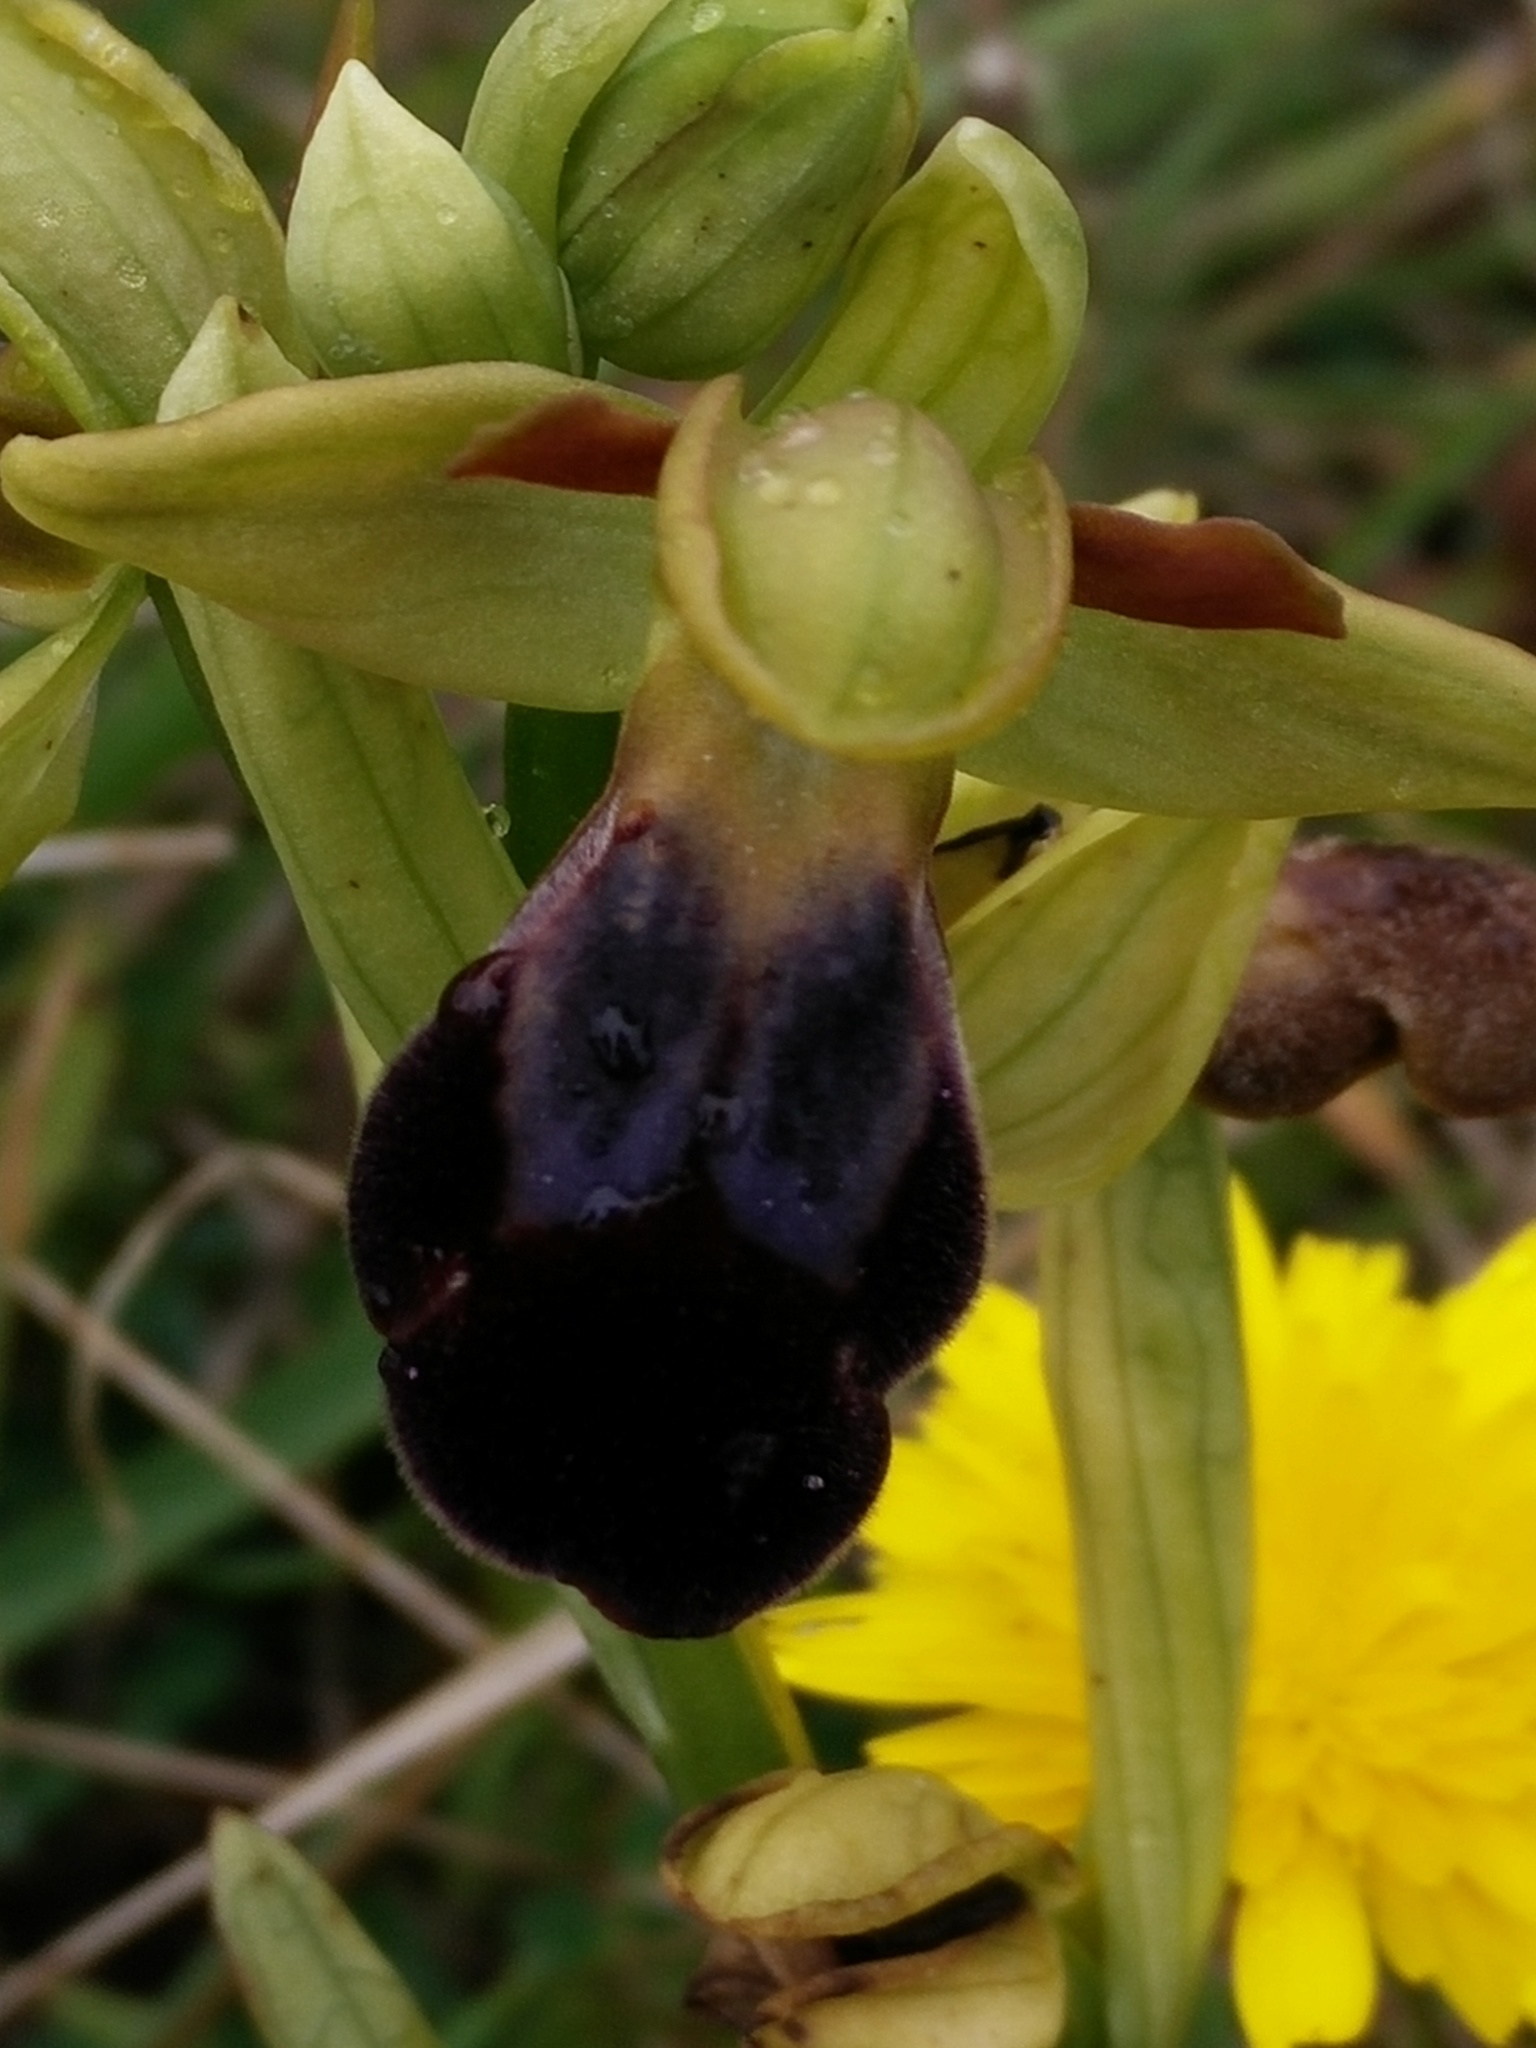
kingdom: Plantae
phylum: Tracheophyta
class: Liliopsida
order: Asparagales
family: Orchidaceae
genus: Ophrys
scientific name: Ophrys fusca
